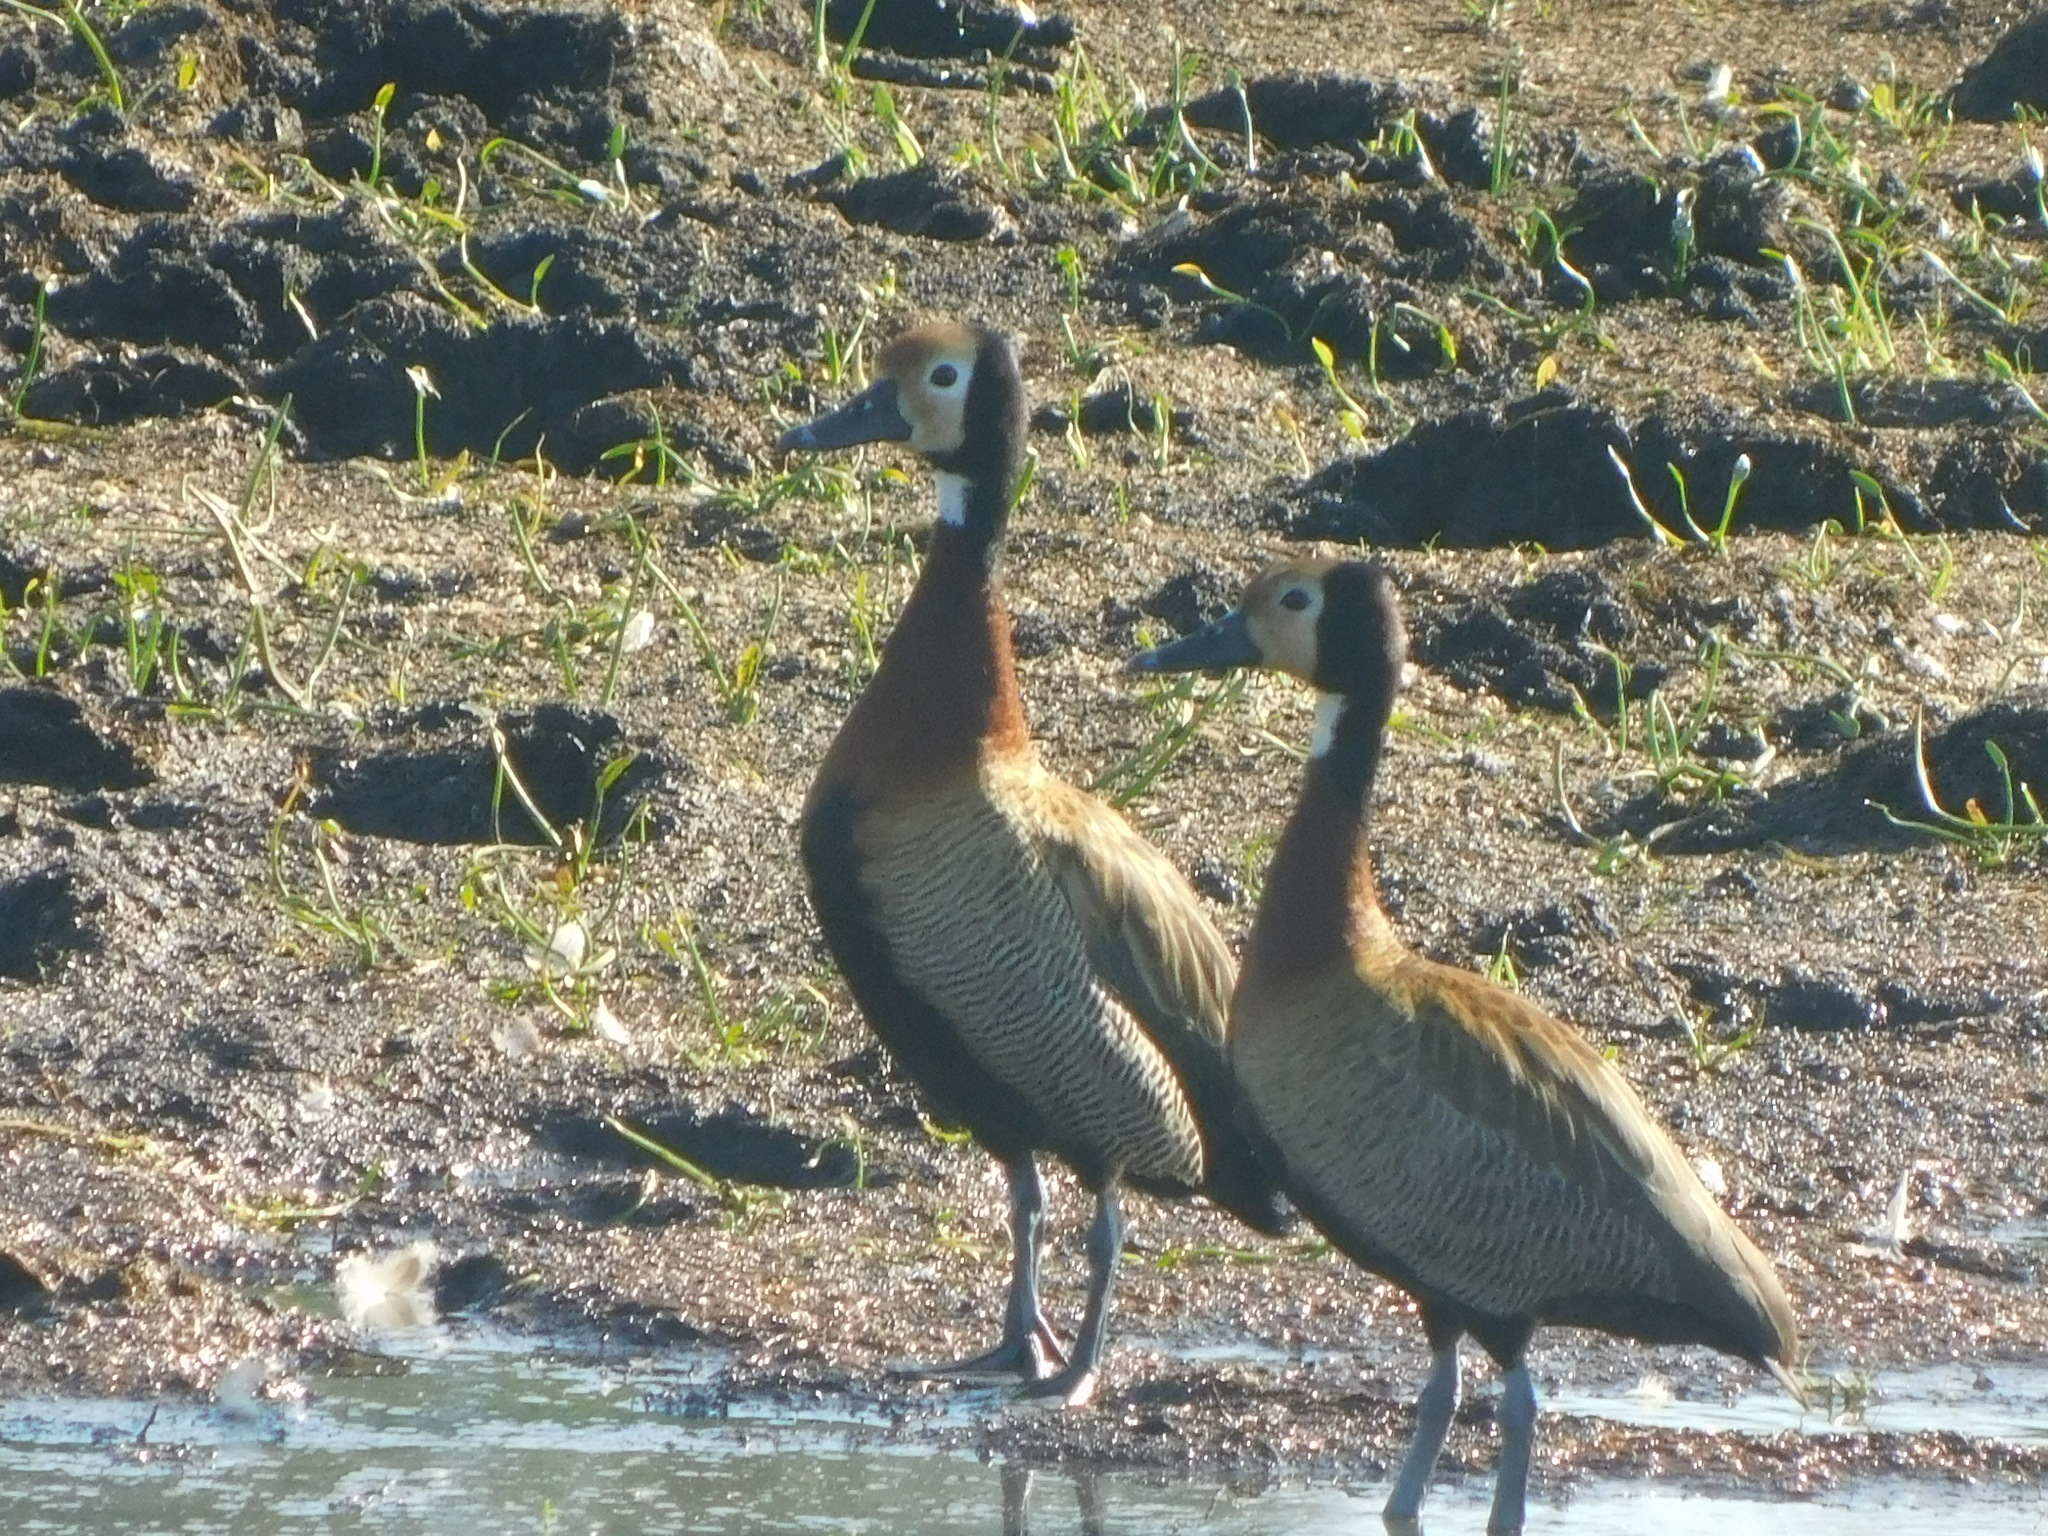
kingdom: Animalia
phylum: Chordata
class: Aves
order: Anseriformes
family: Anatidae
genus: Dendrocygna
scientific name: Dendrocygna viduata
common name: White-faced whistling duck
